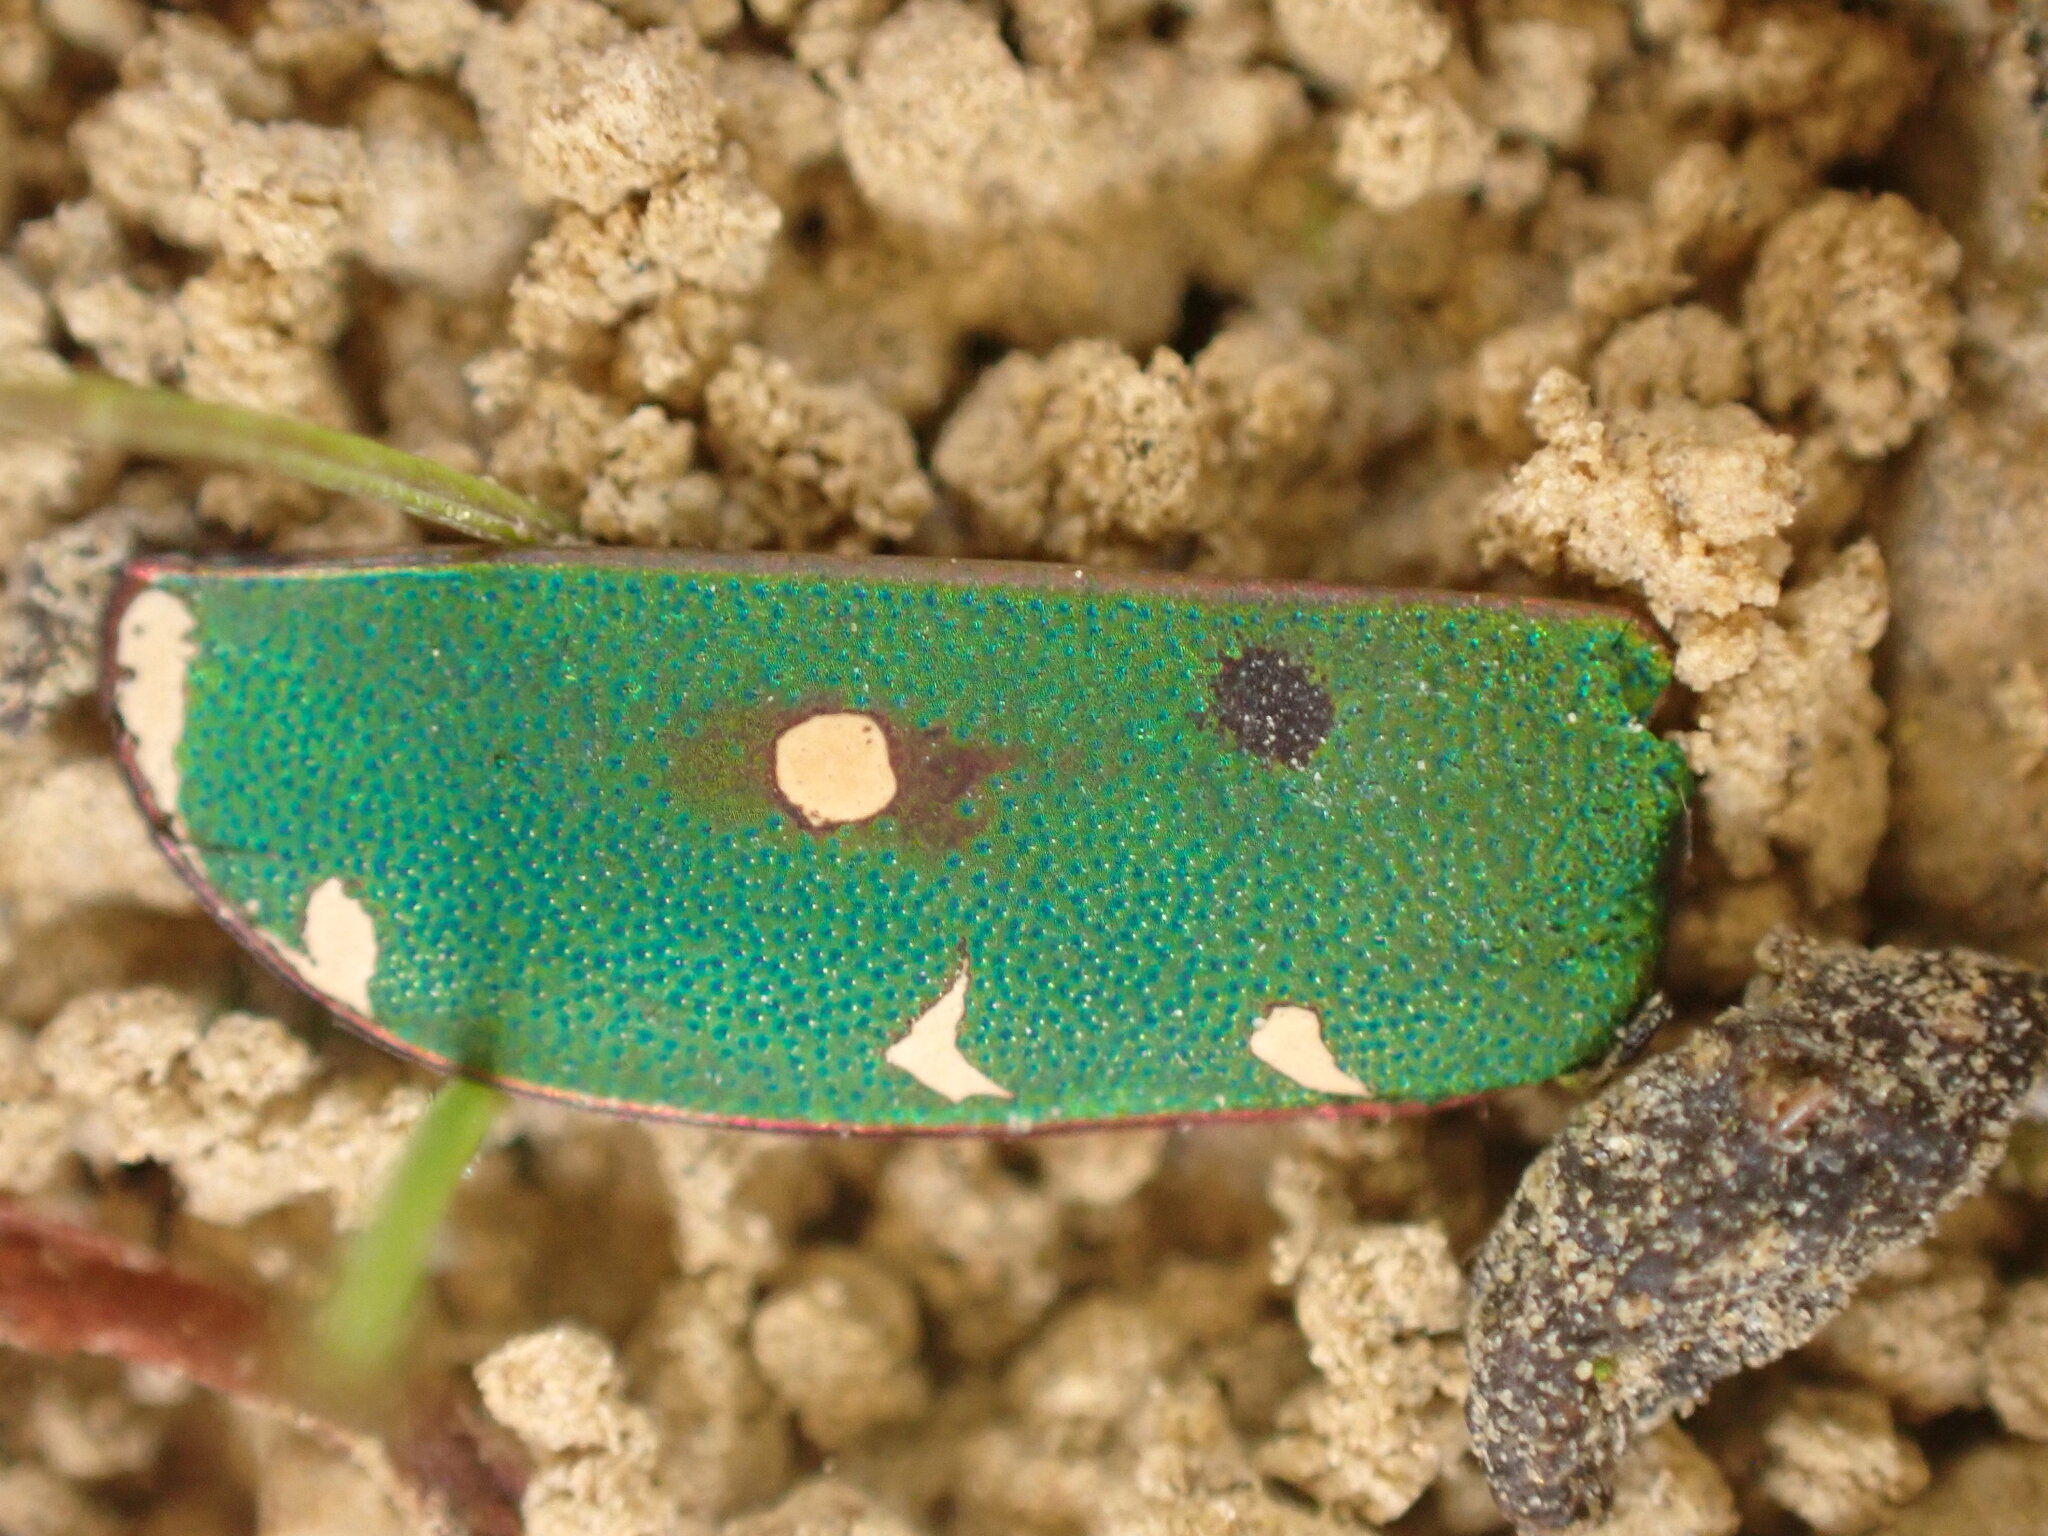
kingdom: Animalia
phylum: Arthropoda
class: Insecta
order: Coleoptera
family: Carabidae
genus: Cicindela
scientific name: Cicindela campestris
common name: Common tiger beetle
